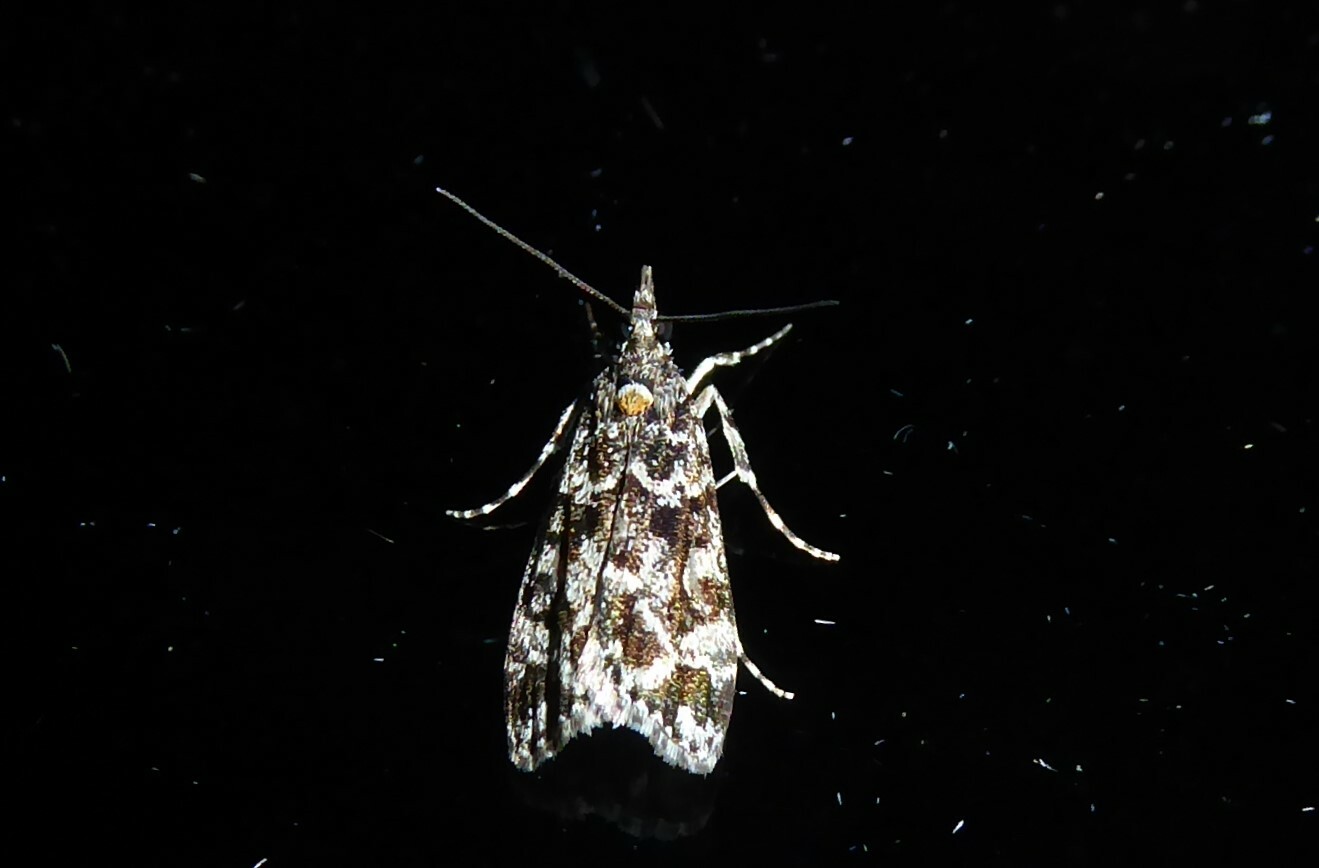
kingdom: Animalia
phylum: Arthropoda
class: Insecta
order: Lepidoptera
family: Crambidae
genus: Eudonia
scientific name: Eudonia
